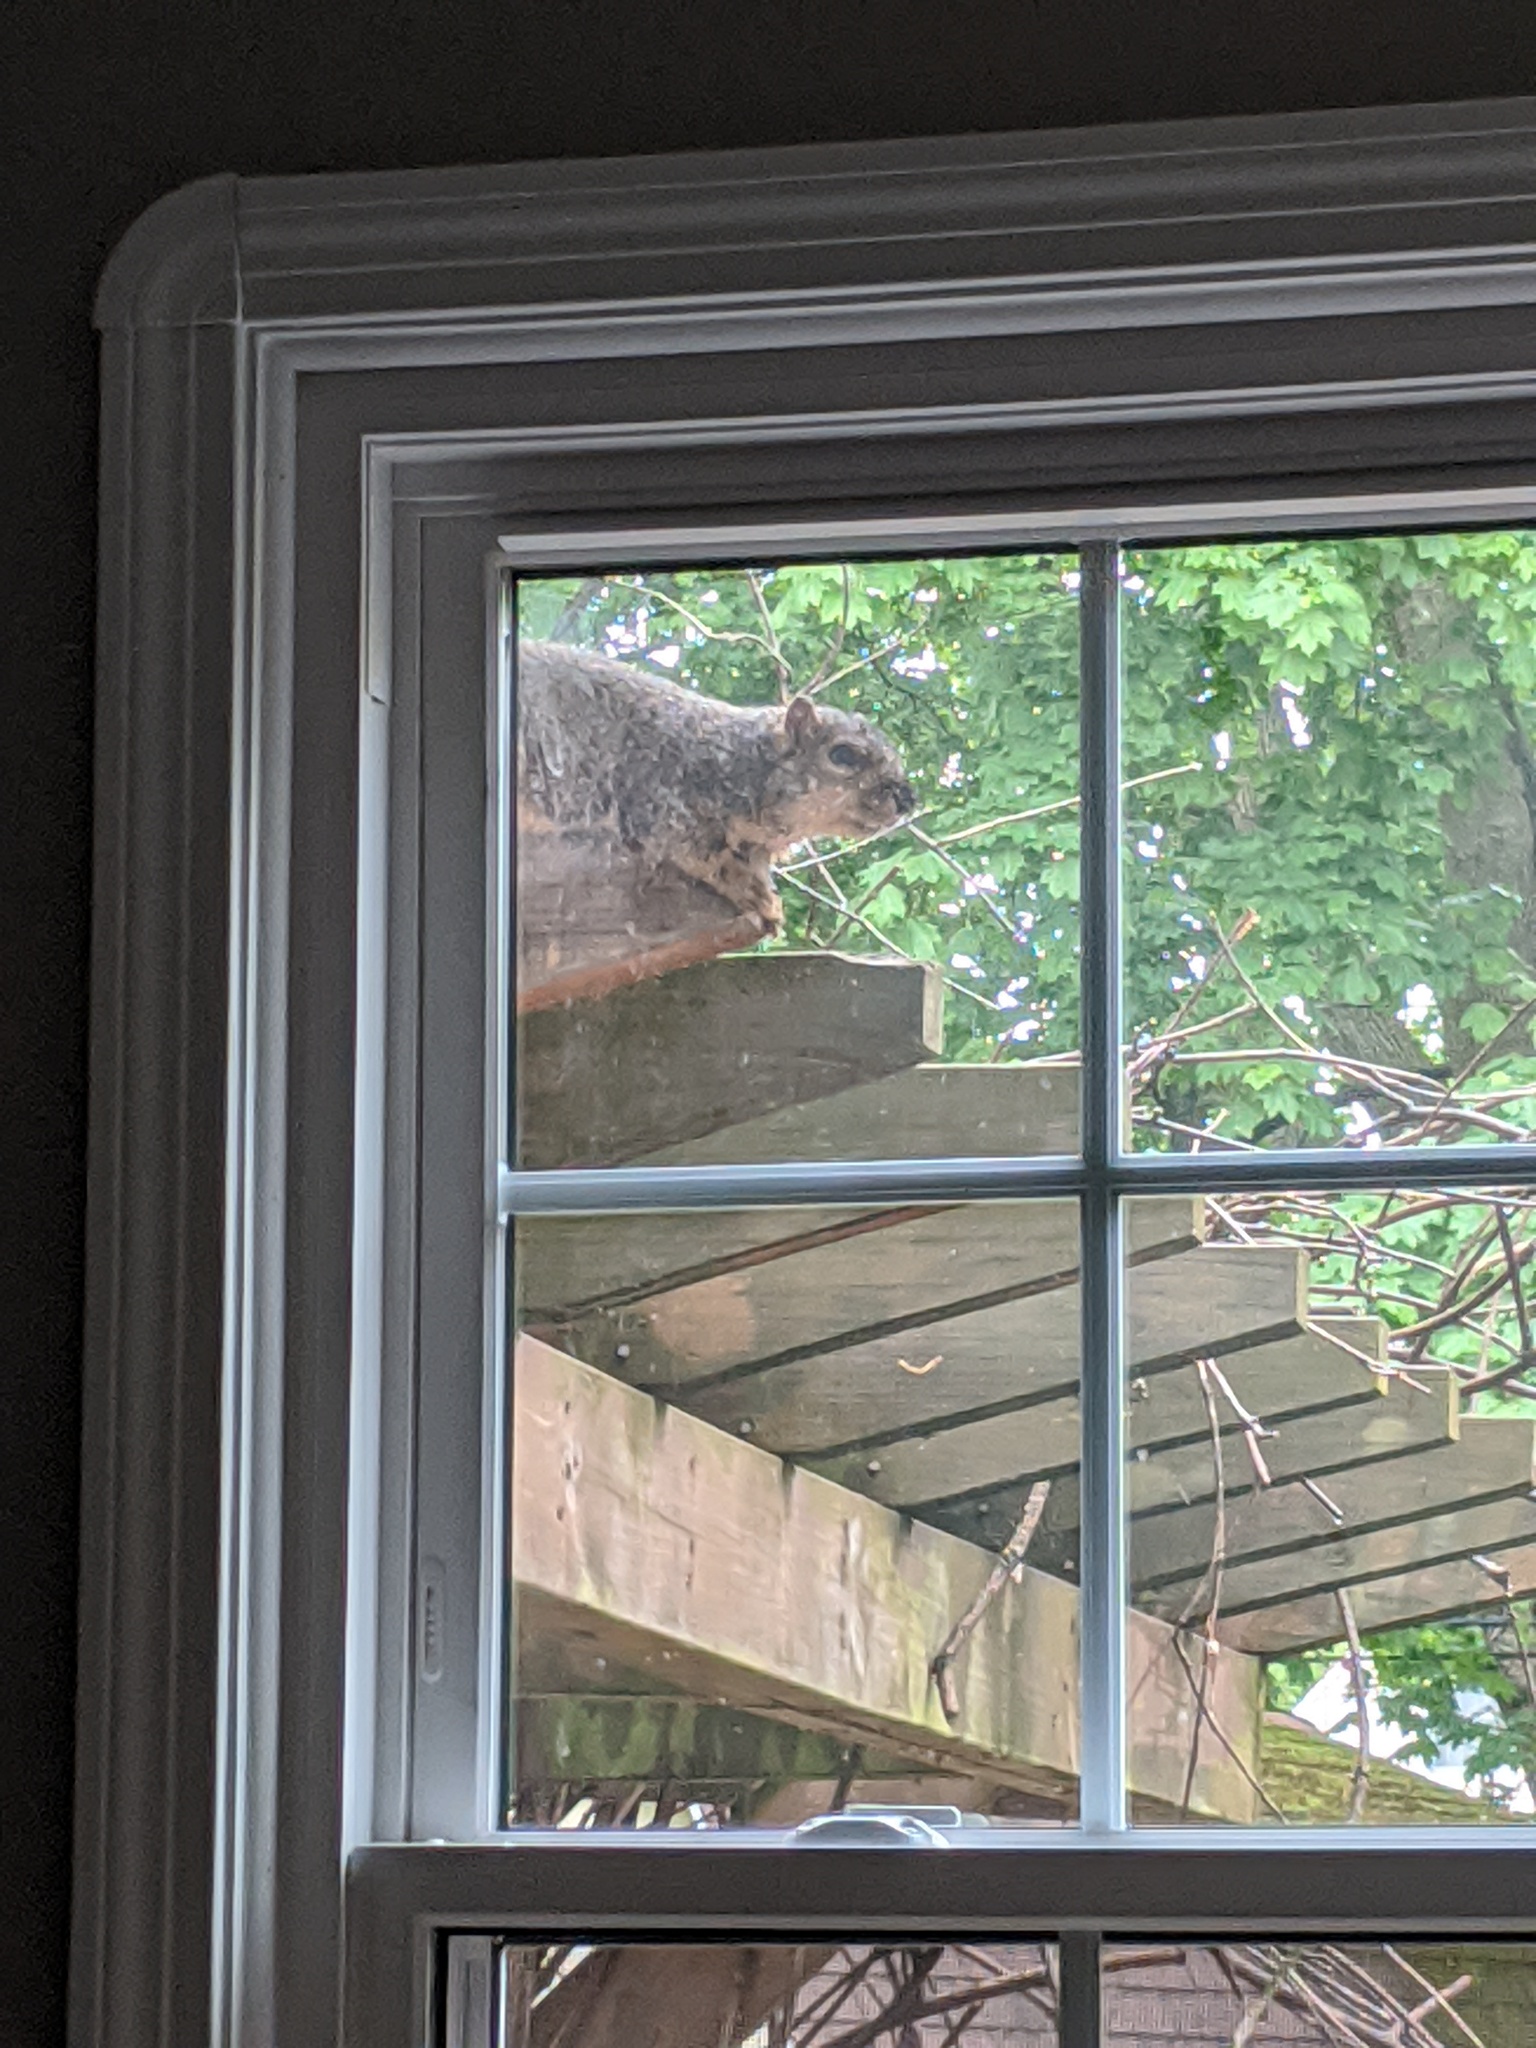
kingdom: Animalia
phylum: Chordata
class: Mammalia
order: Rodentia
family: Sciuridae
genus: Sciurus
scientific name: Sciurus niger
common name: Fox squirrel
